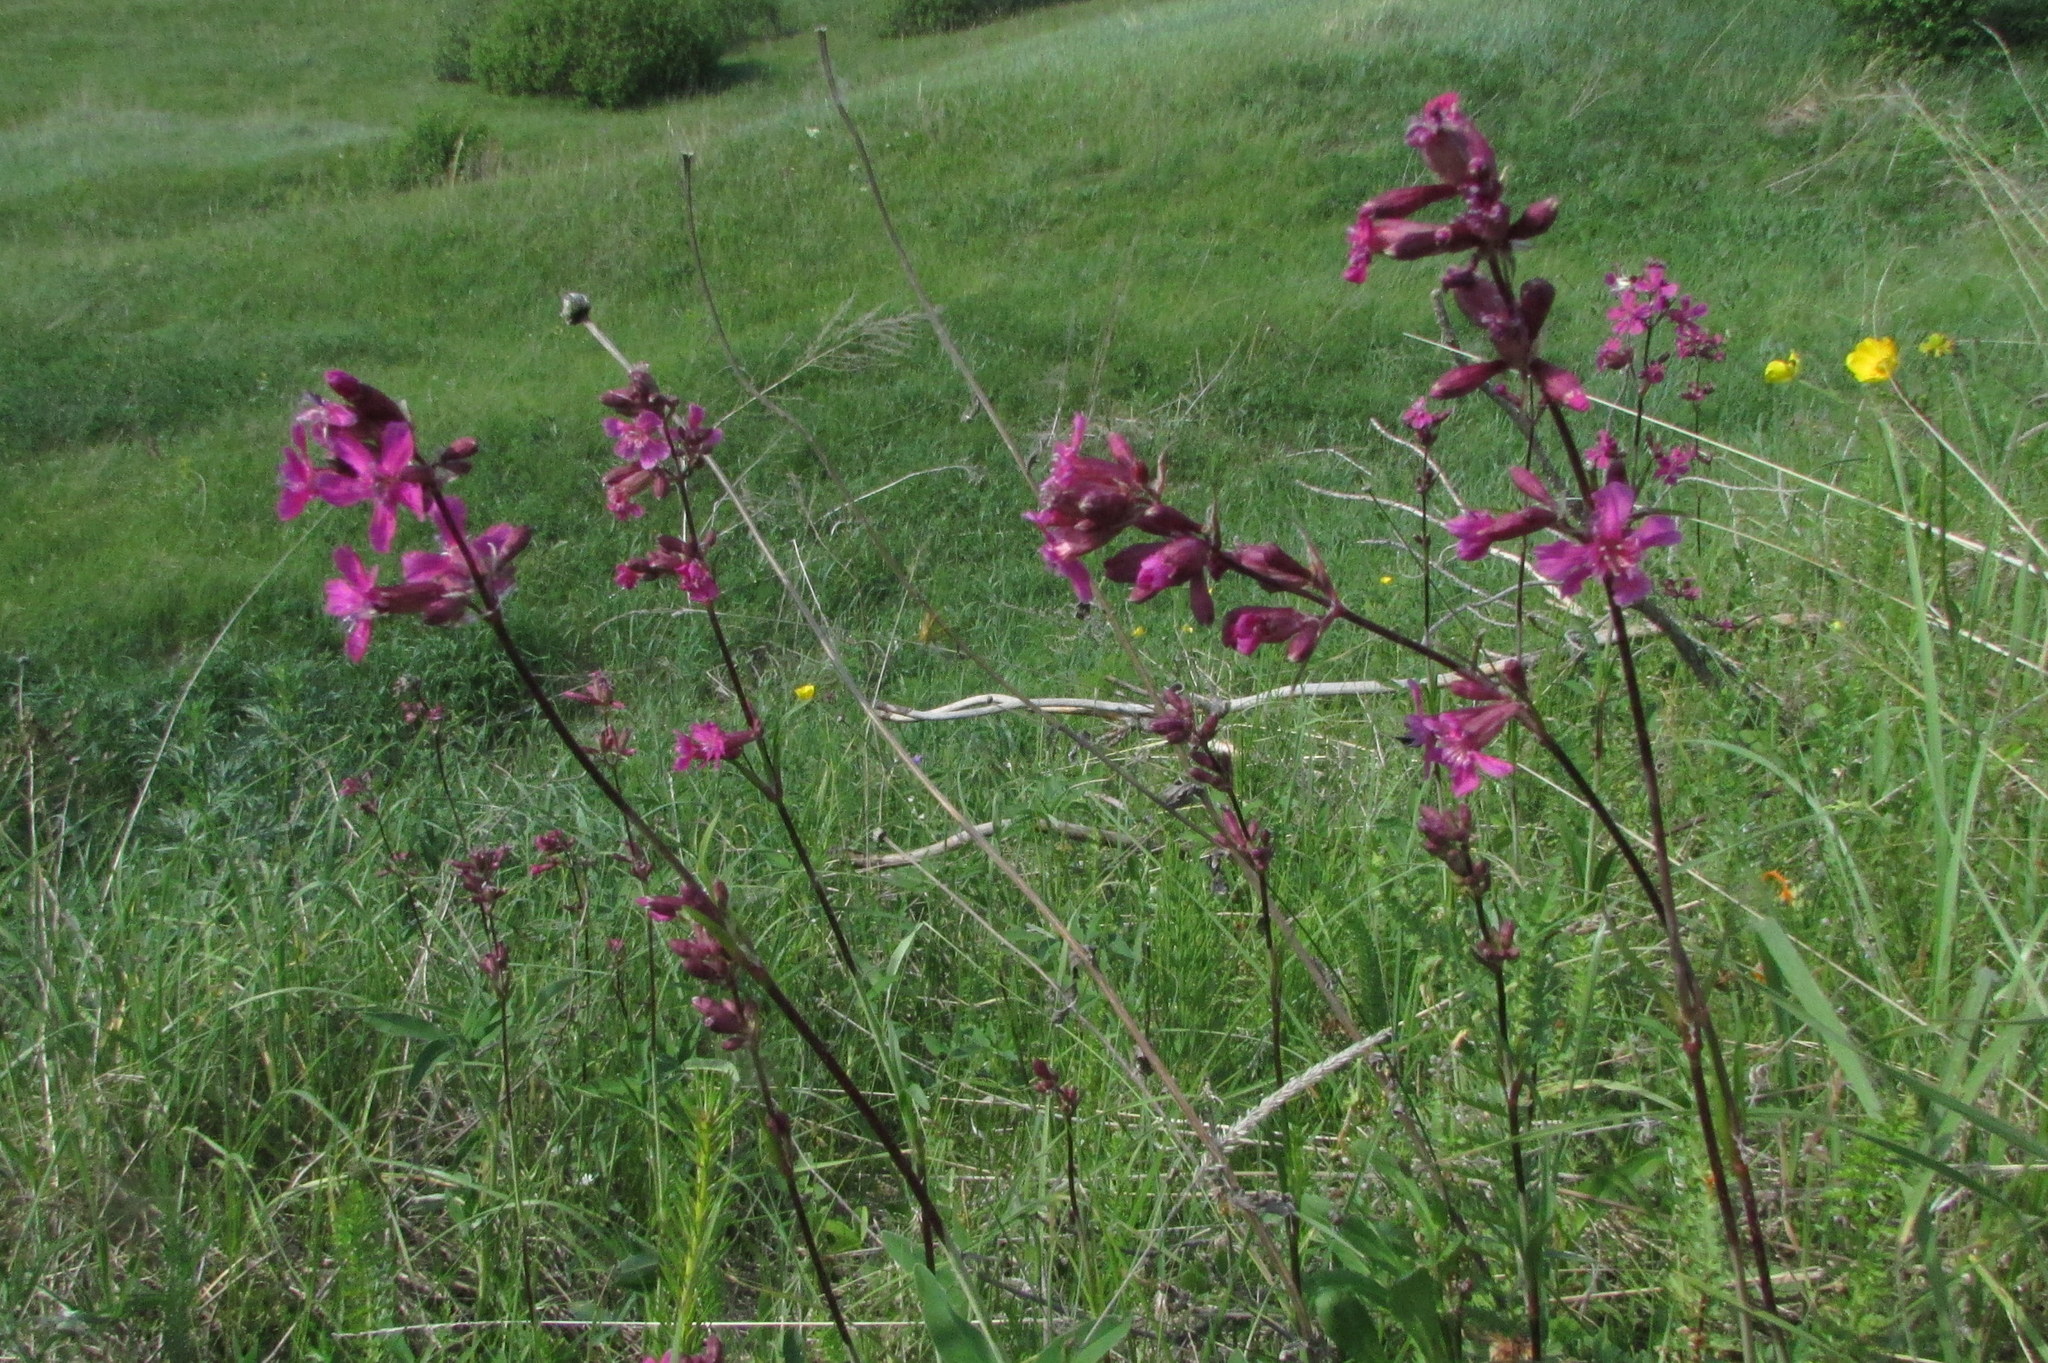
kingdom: Plantae
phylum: Tracheophyta
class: Magnoliopsida
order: Caryophyllales
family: Caryophyllaceae
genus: Viscaria
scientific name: Viscaria vulgaris
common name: Clammy campion
